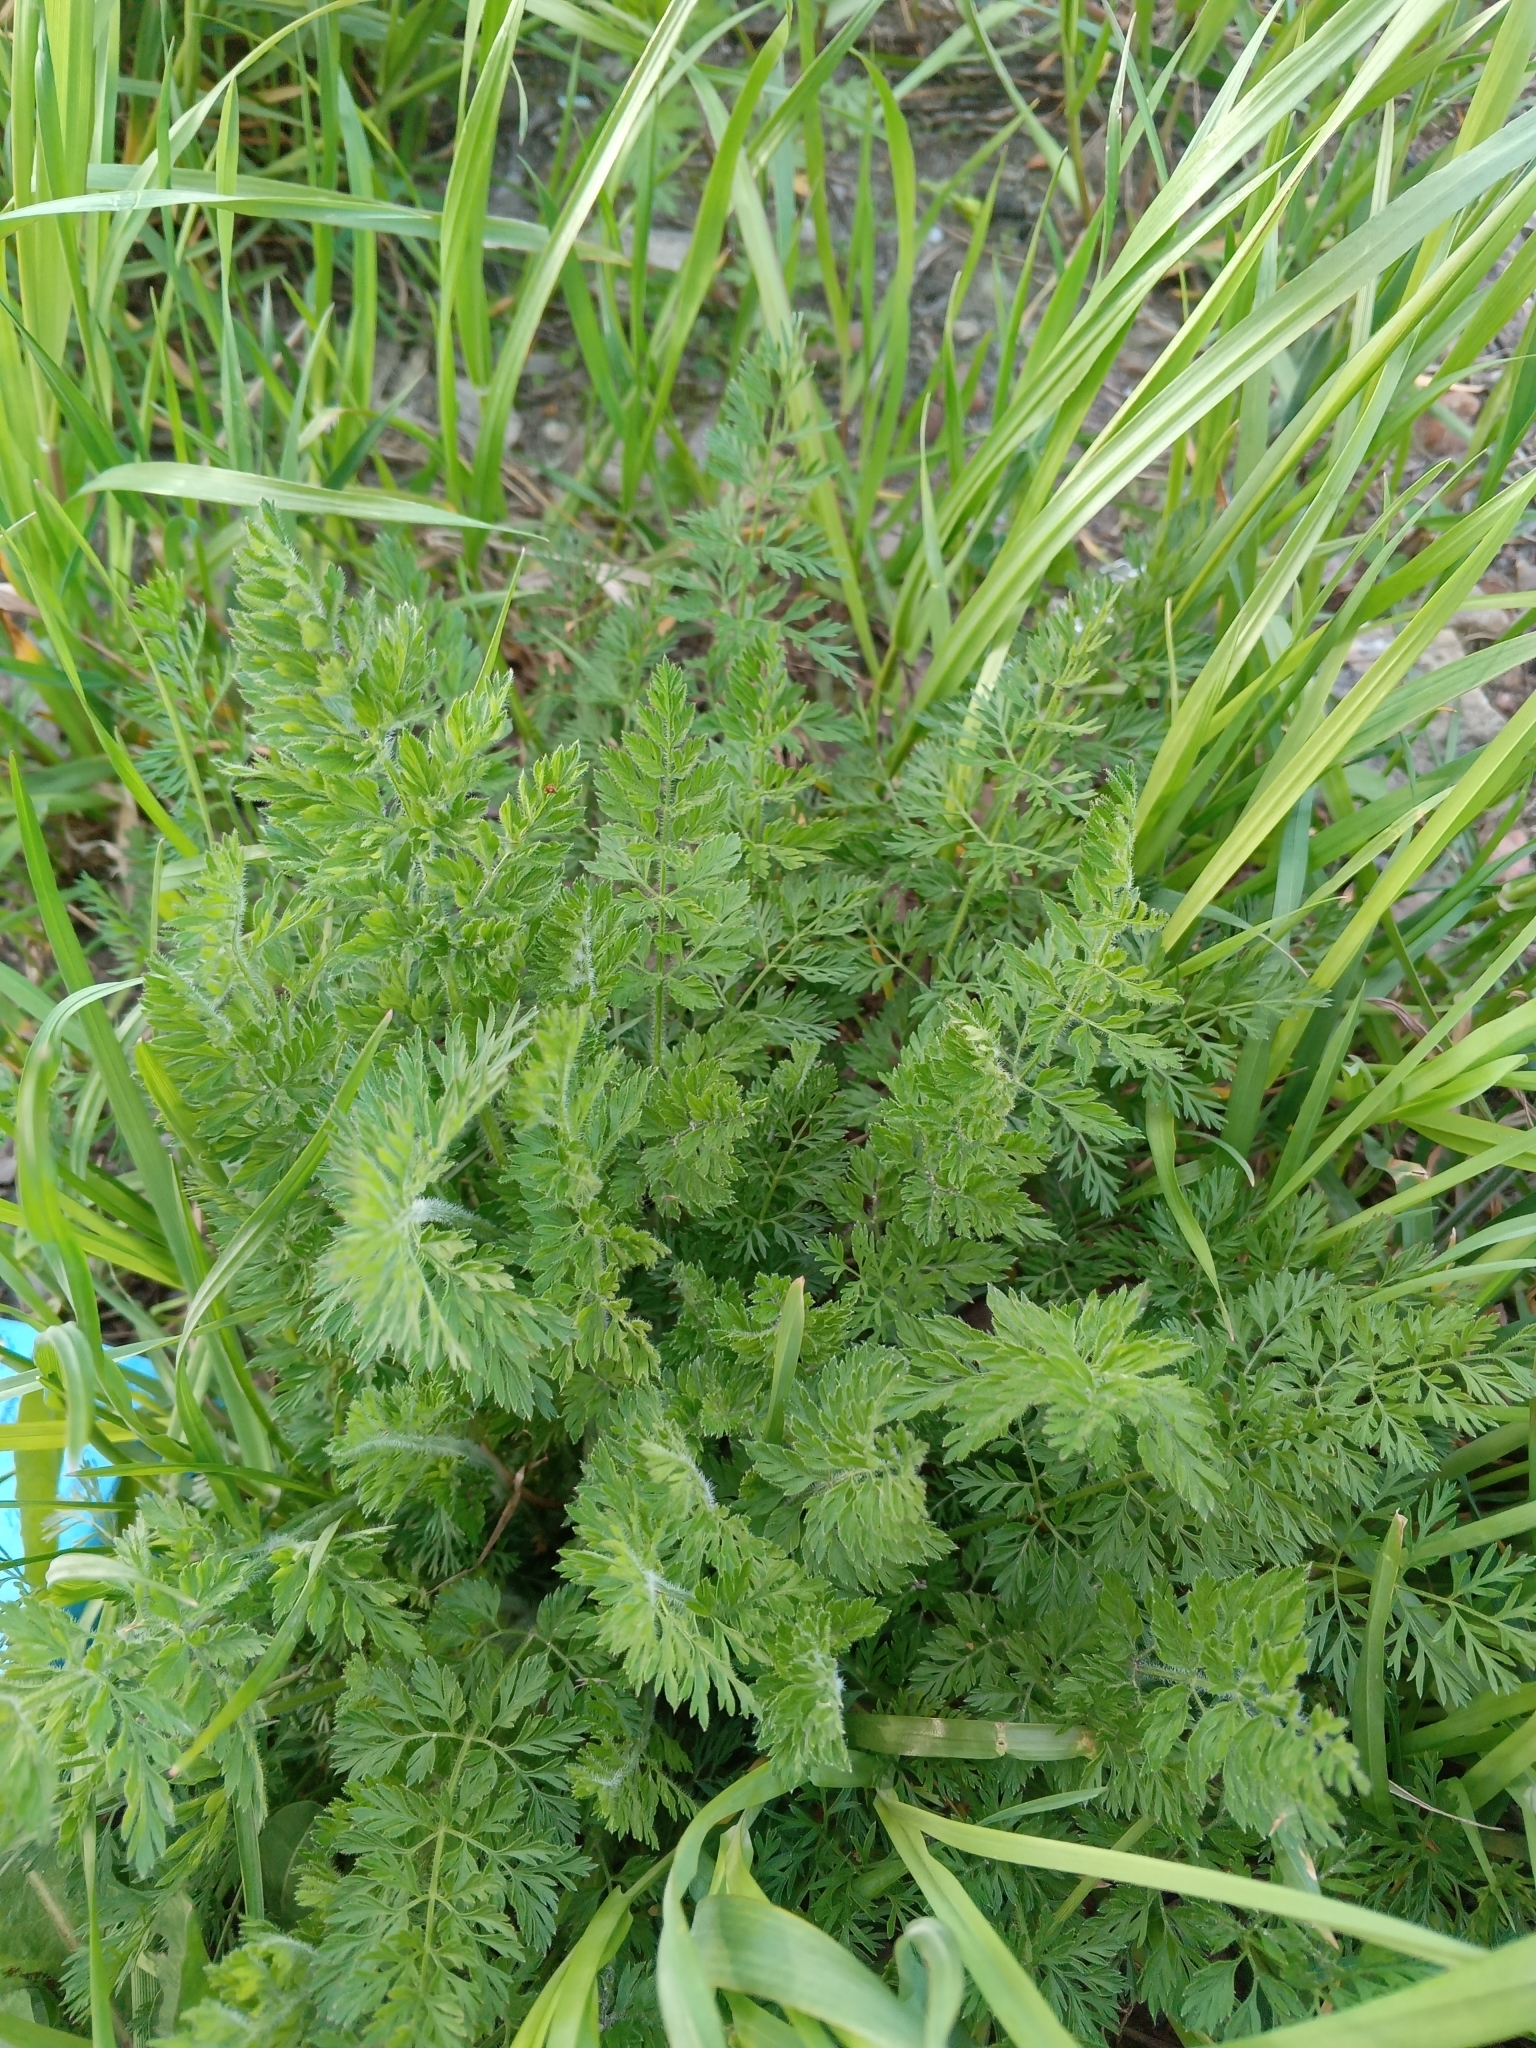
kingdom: Plantae
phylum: Tracheophyta
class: Magnoliopsida
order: Apiales
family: Apiaceae
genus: Daucus
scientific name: Daucus carota
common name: Wild carrot
